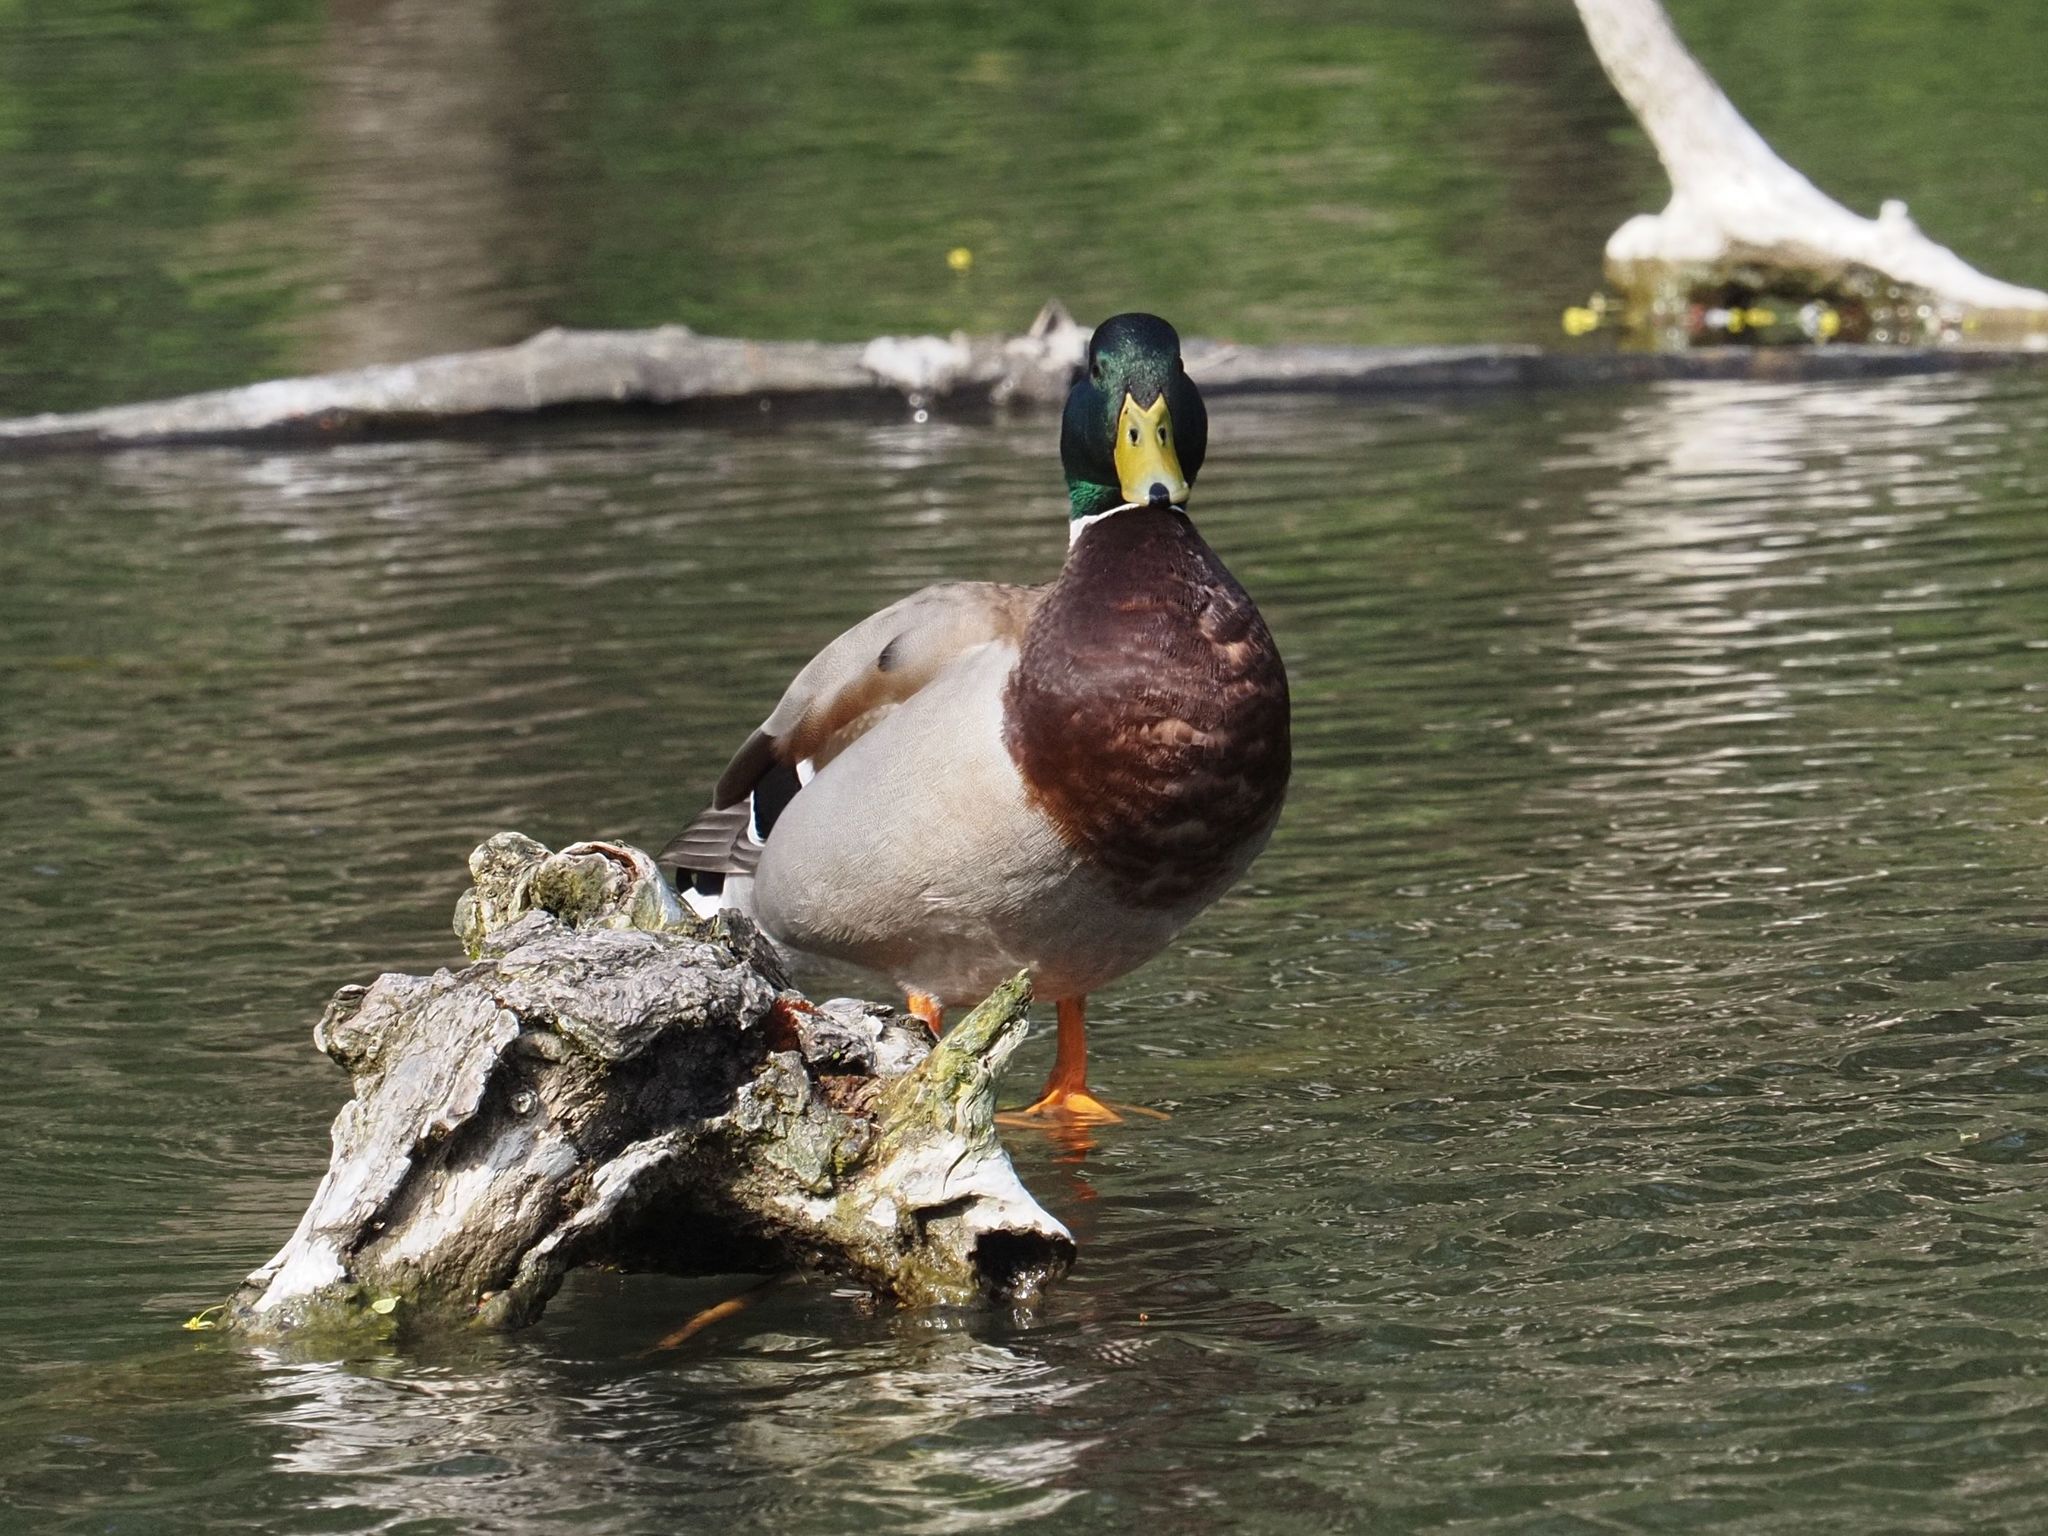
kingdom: Animalia
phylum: Chordata
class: Aves
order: Anseriformes
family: Anatidae
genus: Anas
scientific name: Anas platyrhynchos
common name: Mallard
